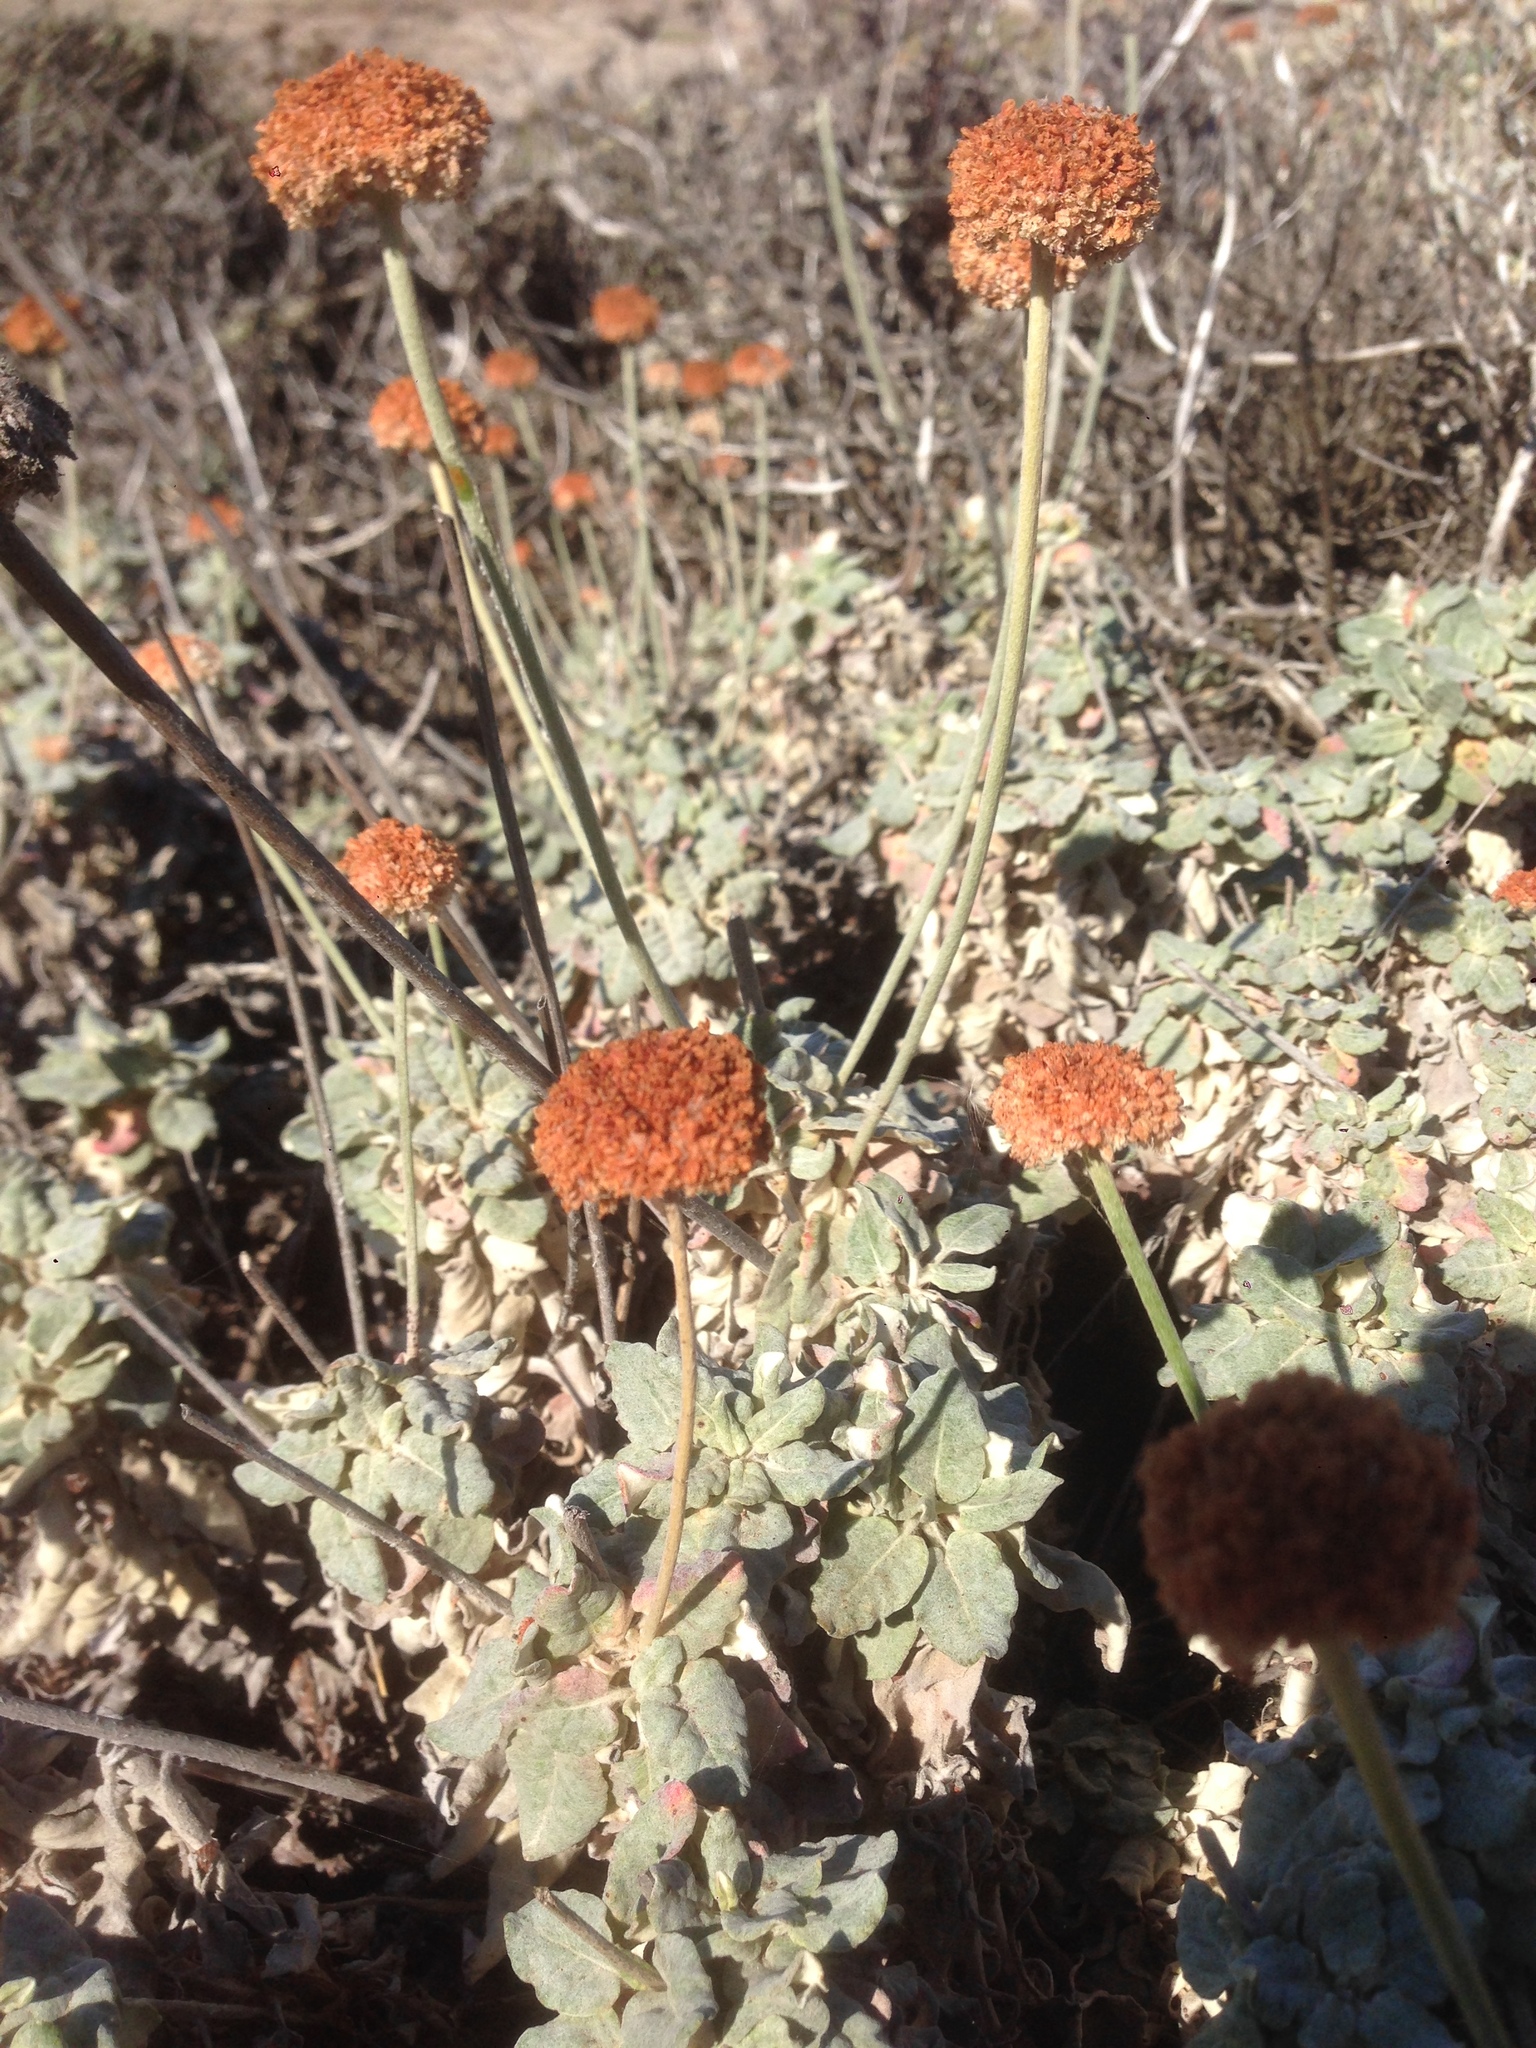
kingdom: Plantae
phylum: Tracheophyta
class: Magnoliopsida
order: Caryophyllales
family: Polygonaceae
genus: Eriogonum
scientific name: Eriogonum latifolium
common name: Seaside wild buckwheat
